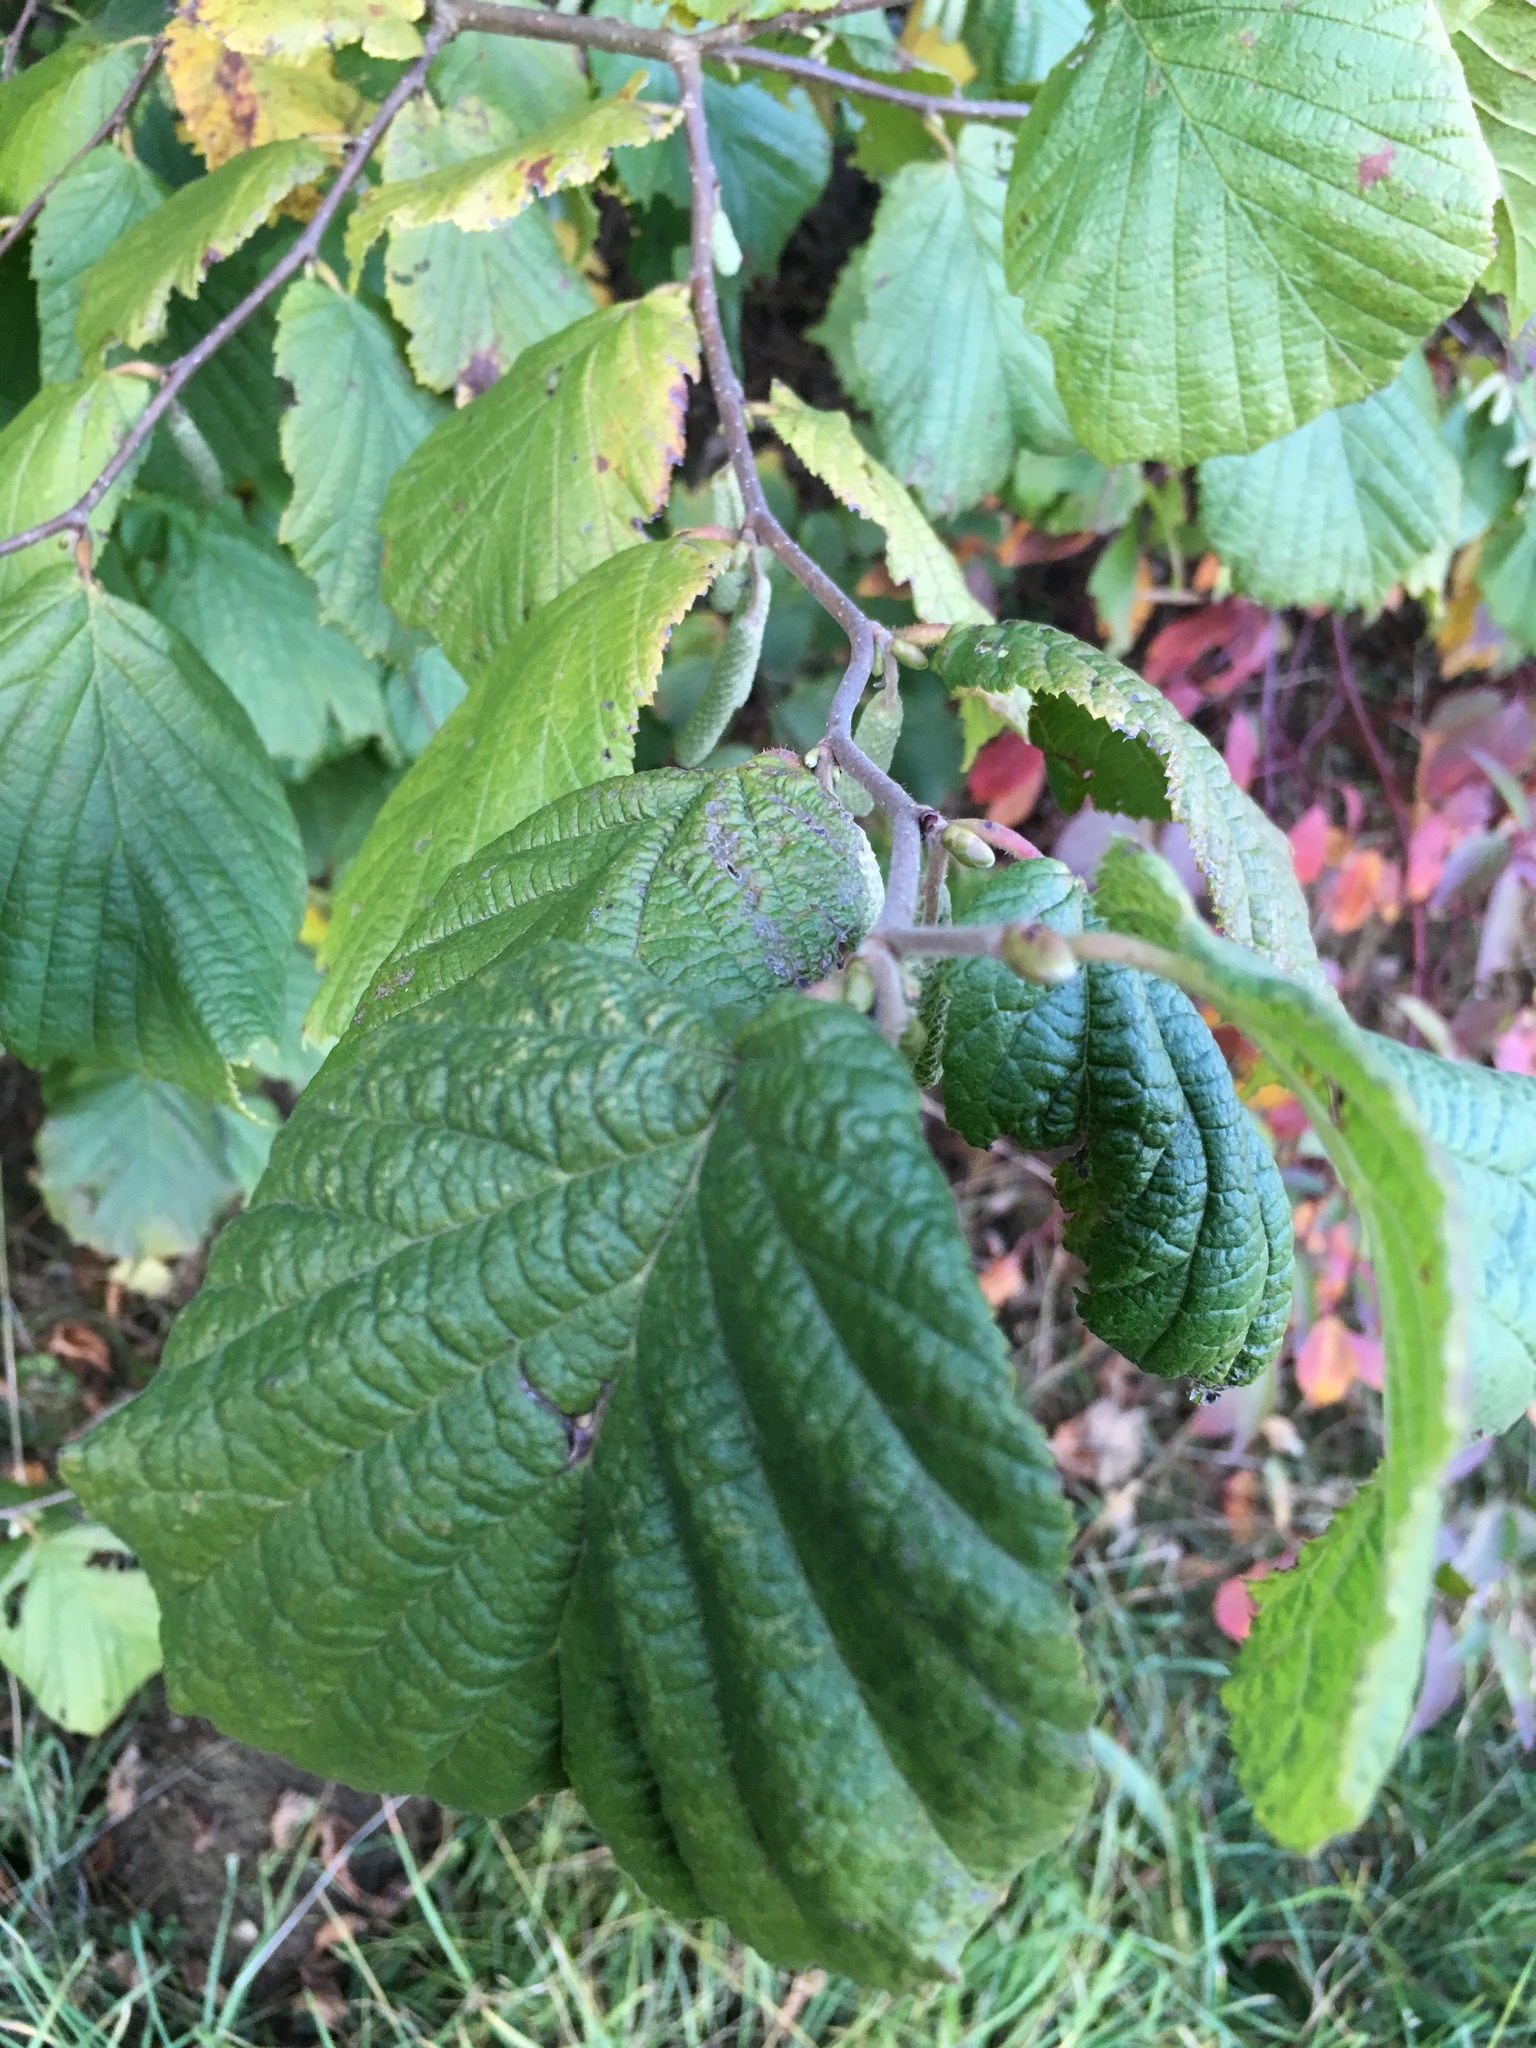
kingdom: Plantae
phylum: Tracheophyta
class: Magnoliopsida
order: Fagales
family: Betulaceae
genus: Corylus
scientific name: Corylus avellana
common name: European hazel
